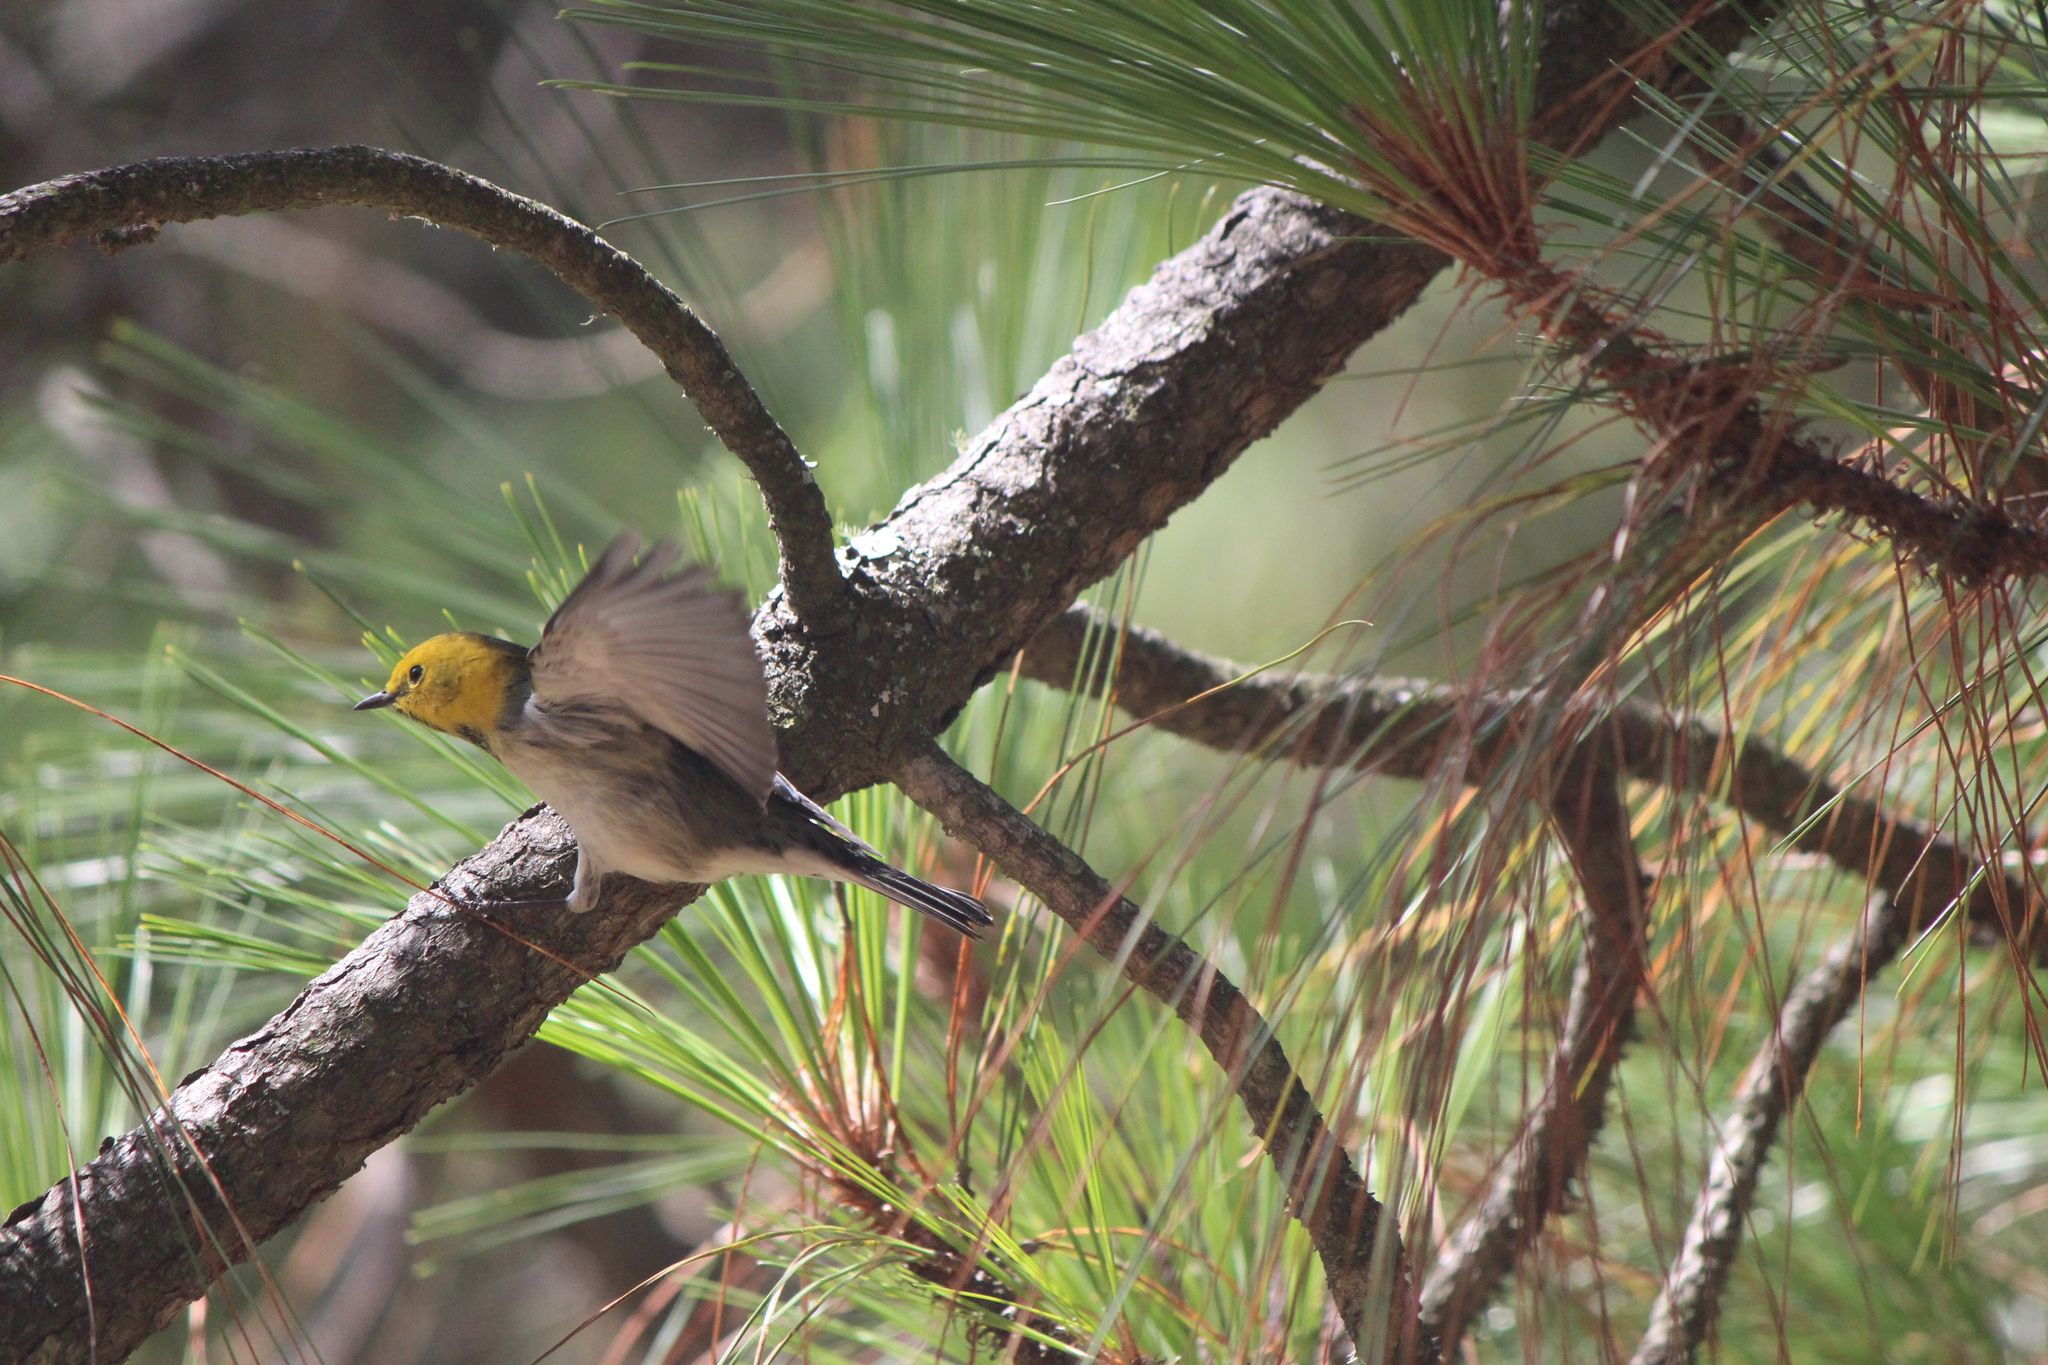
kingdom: Animalia
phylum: Chordata
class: Aves
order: Passeriformes
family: Parulidae
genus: Setophaga
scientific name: Setophaga occidentalis
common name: Hermit warbler
